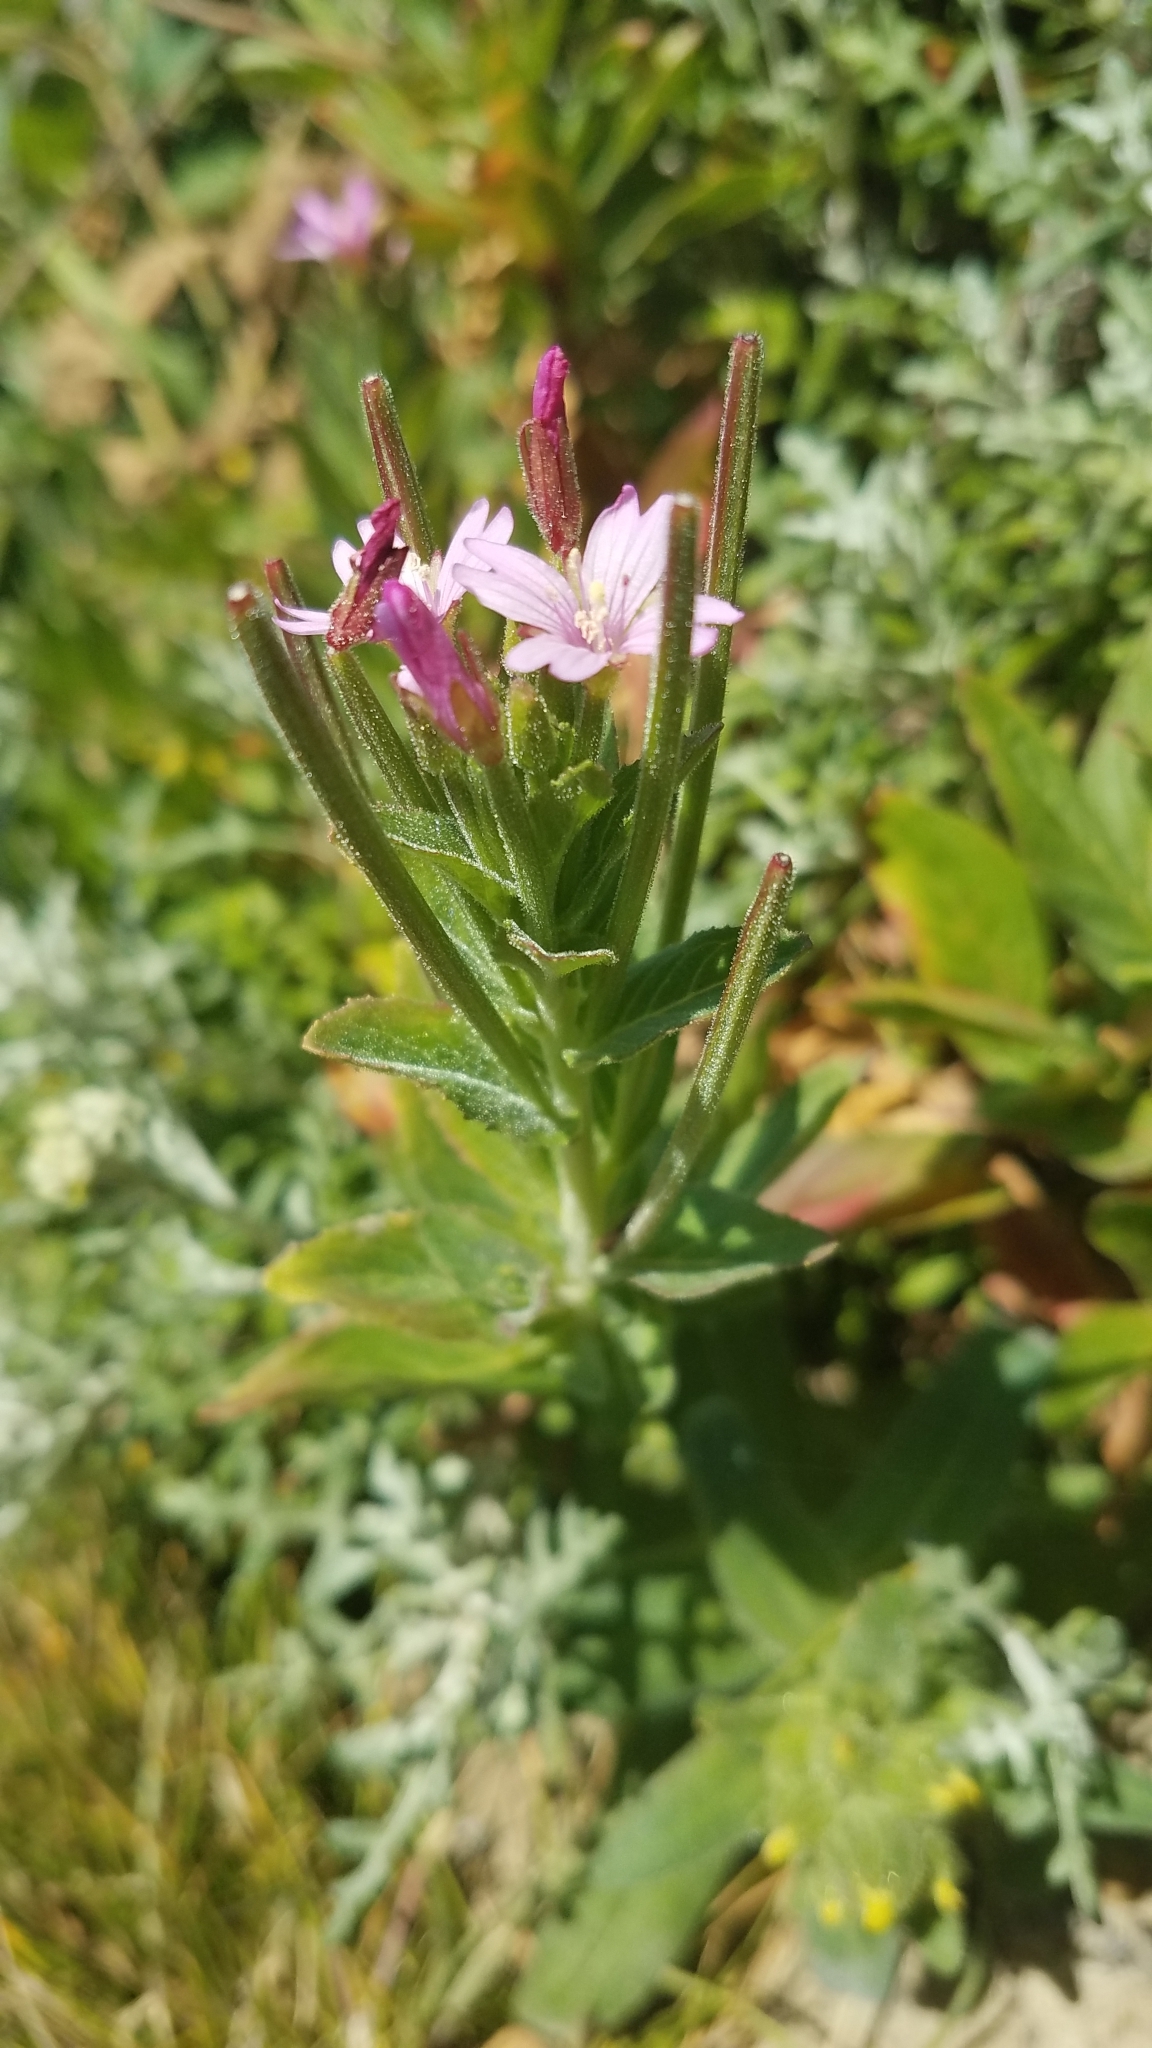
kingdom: Plantae
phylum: Tracheophyta
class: Magnoliopsida
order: Myrtales
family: Onagraceae
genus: Epilobium
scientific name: Epilobium ciliatum
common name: American willowherb
